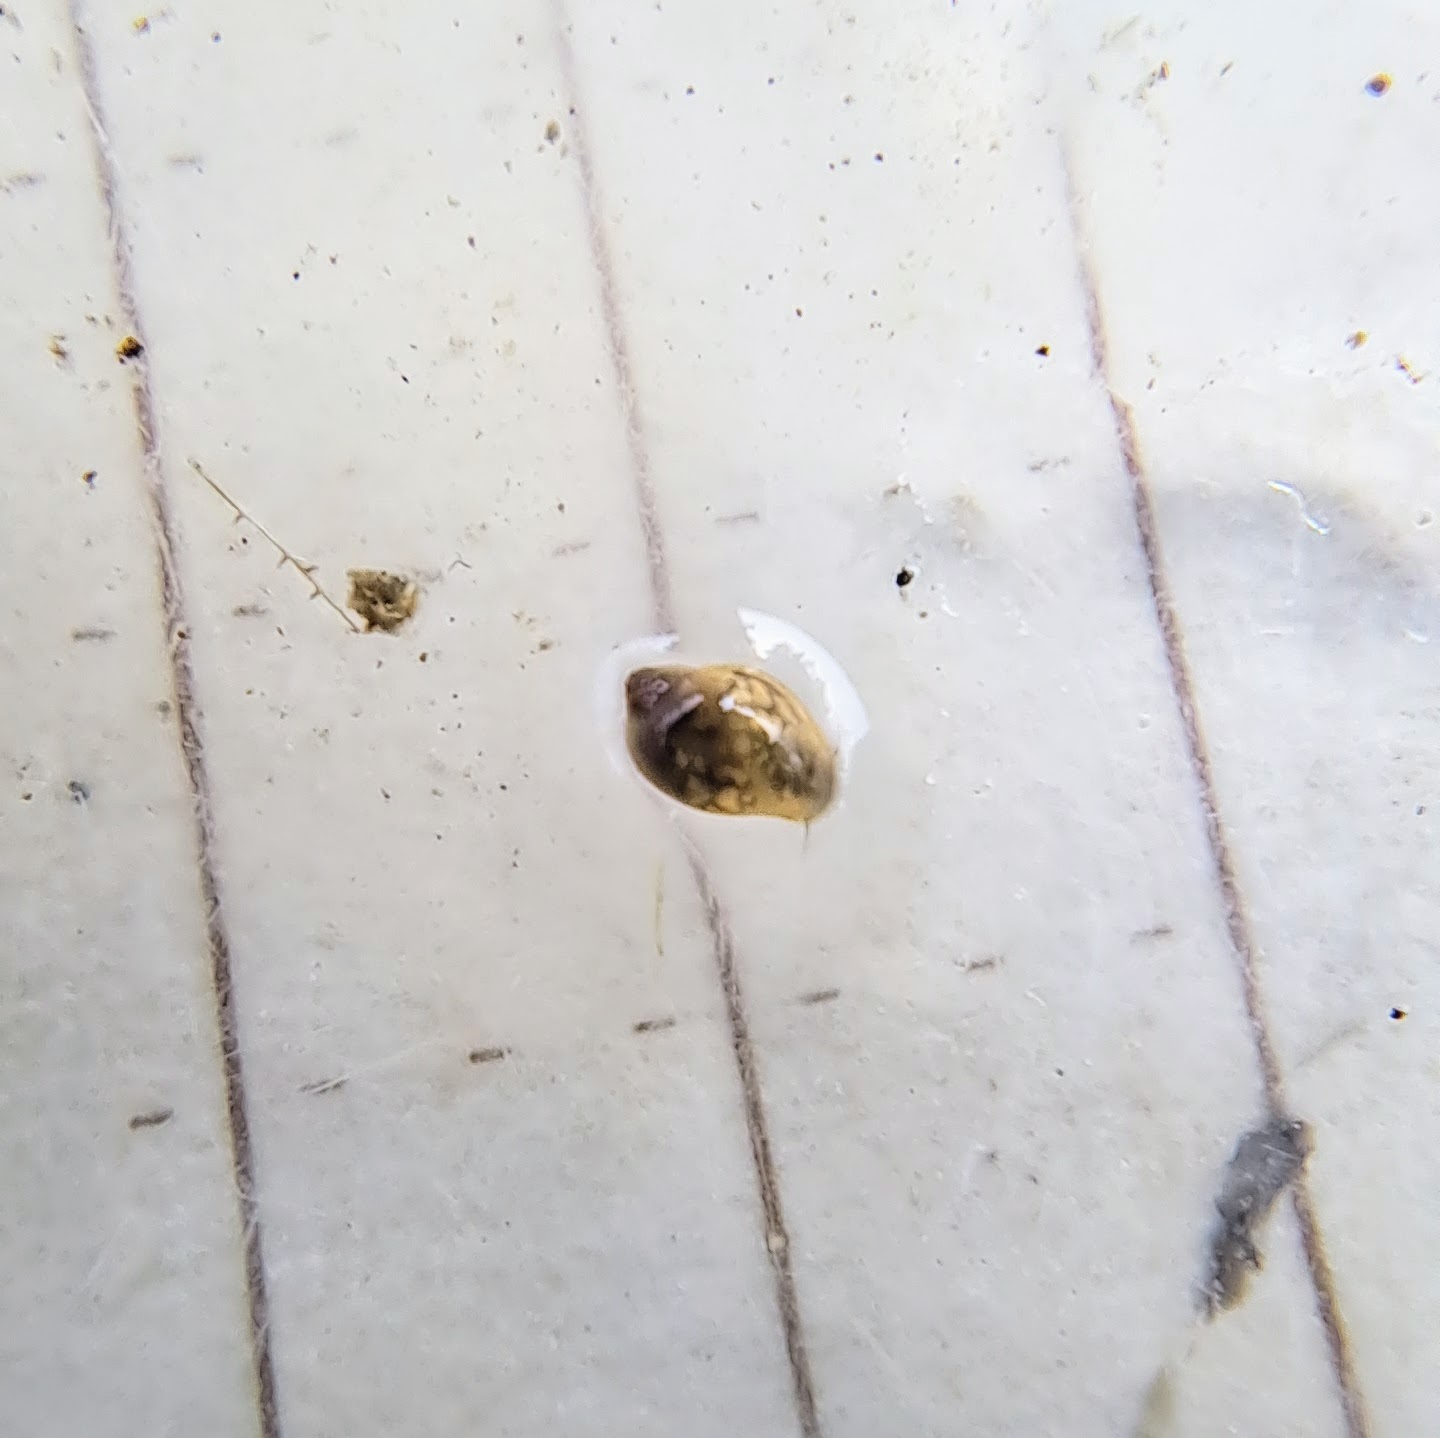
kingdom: Animalia
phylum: Mollusca
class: Gastropoda
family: Physidae
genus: Physella
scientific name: Physella
